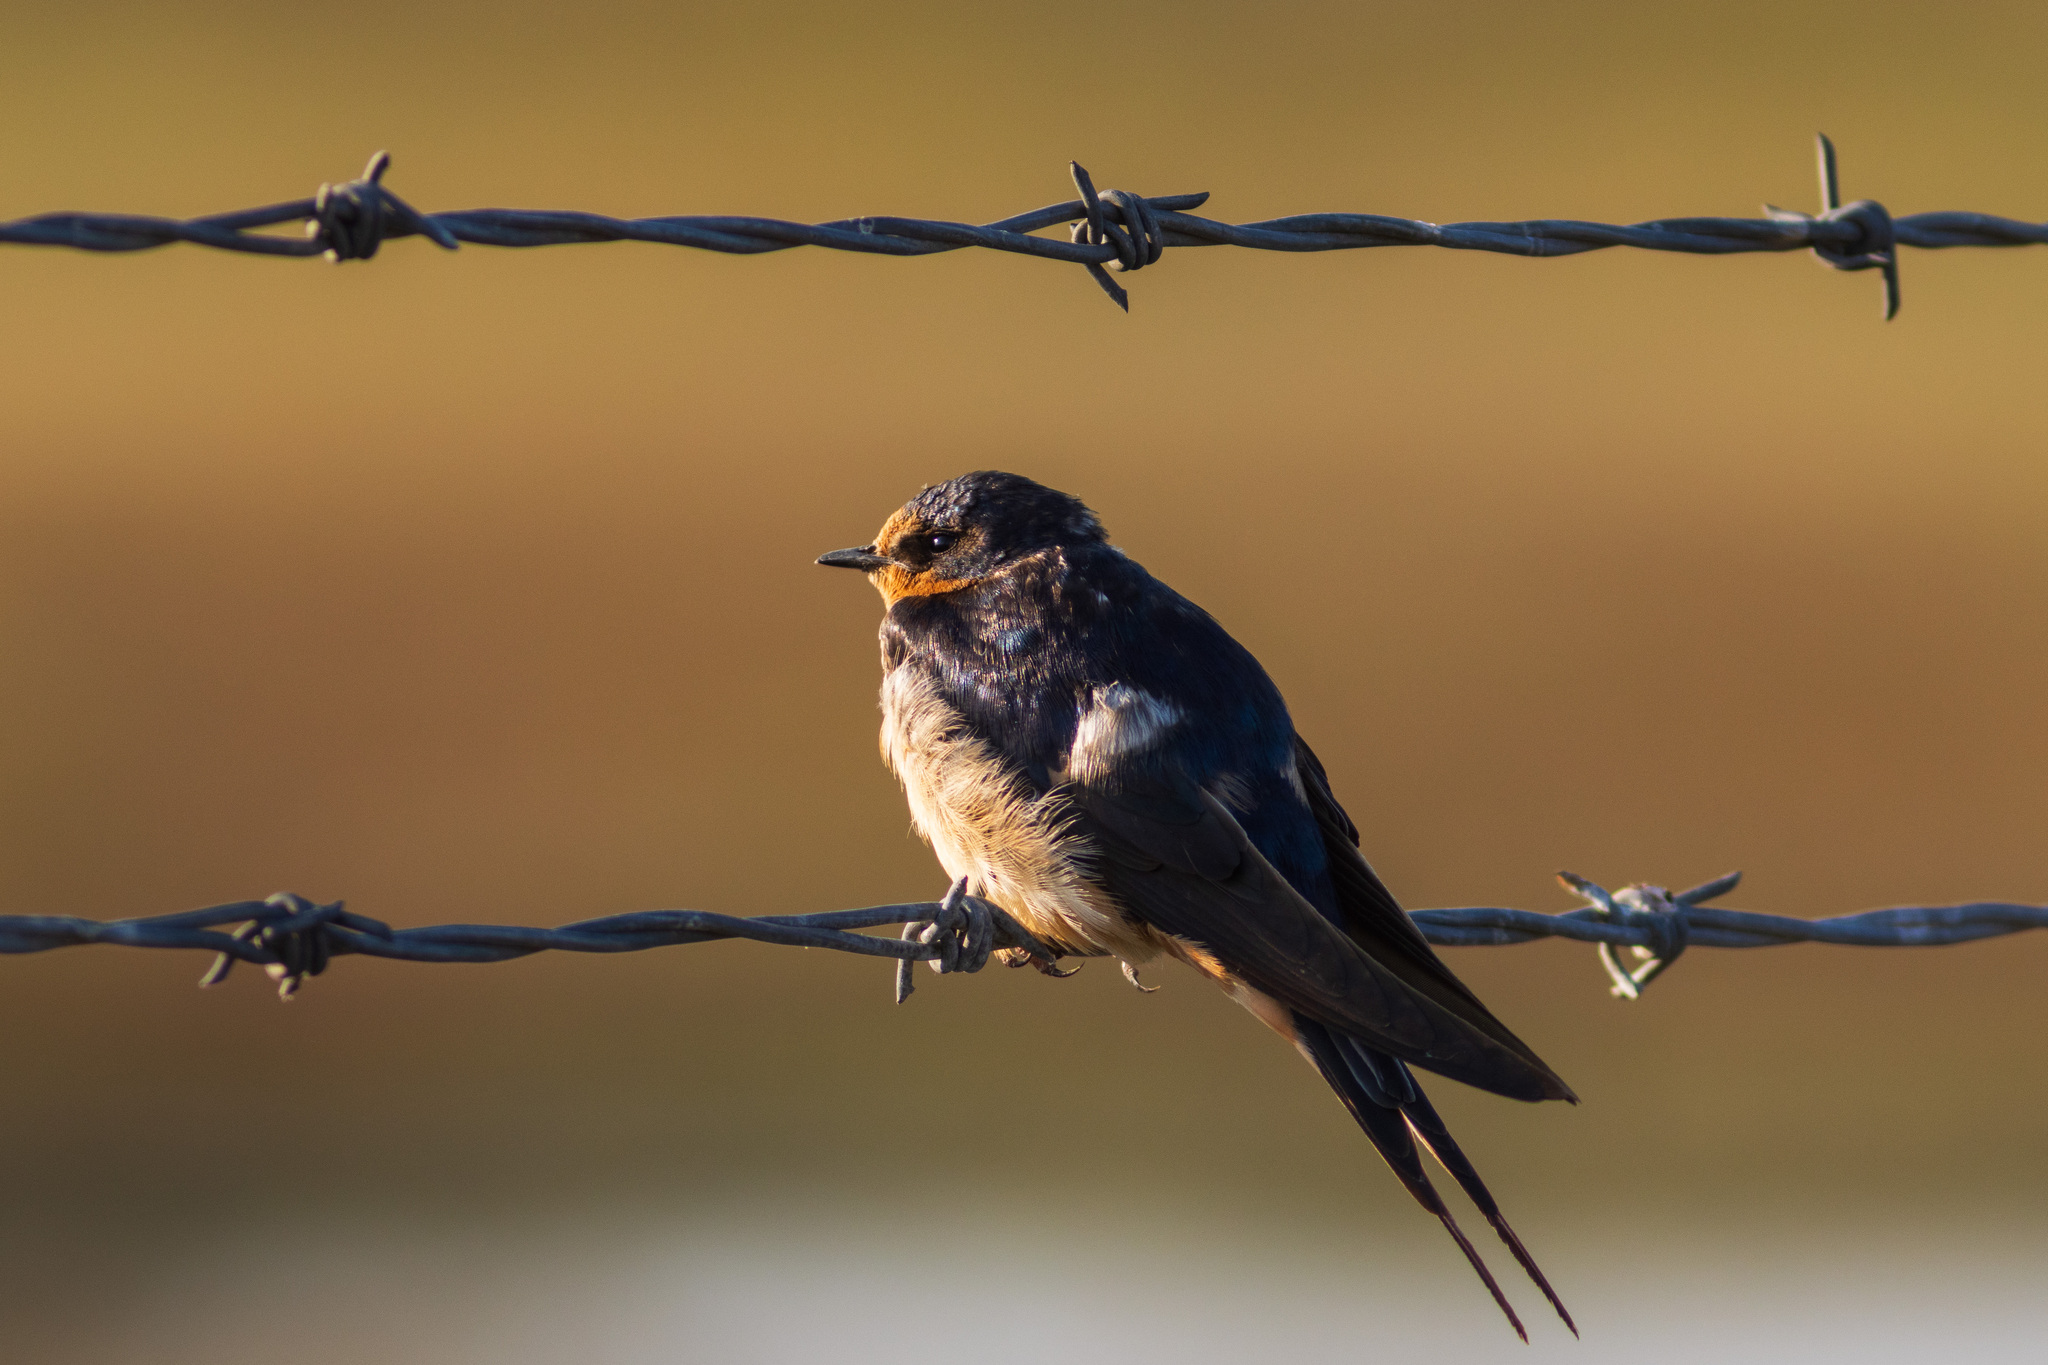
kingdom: Animalia
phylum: Chordata
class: Aves
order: Passeriformes
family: Hirundinidae
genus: Hirundo
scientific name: Hirundo rustica
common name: Barn swallow
